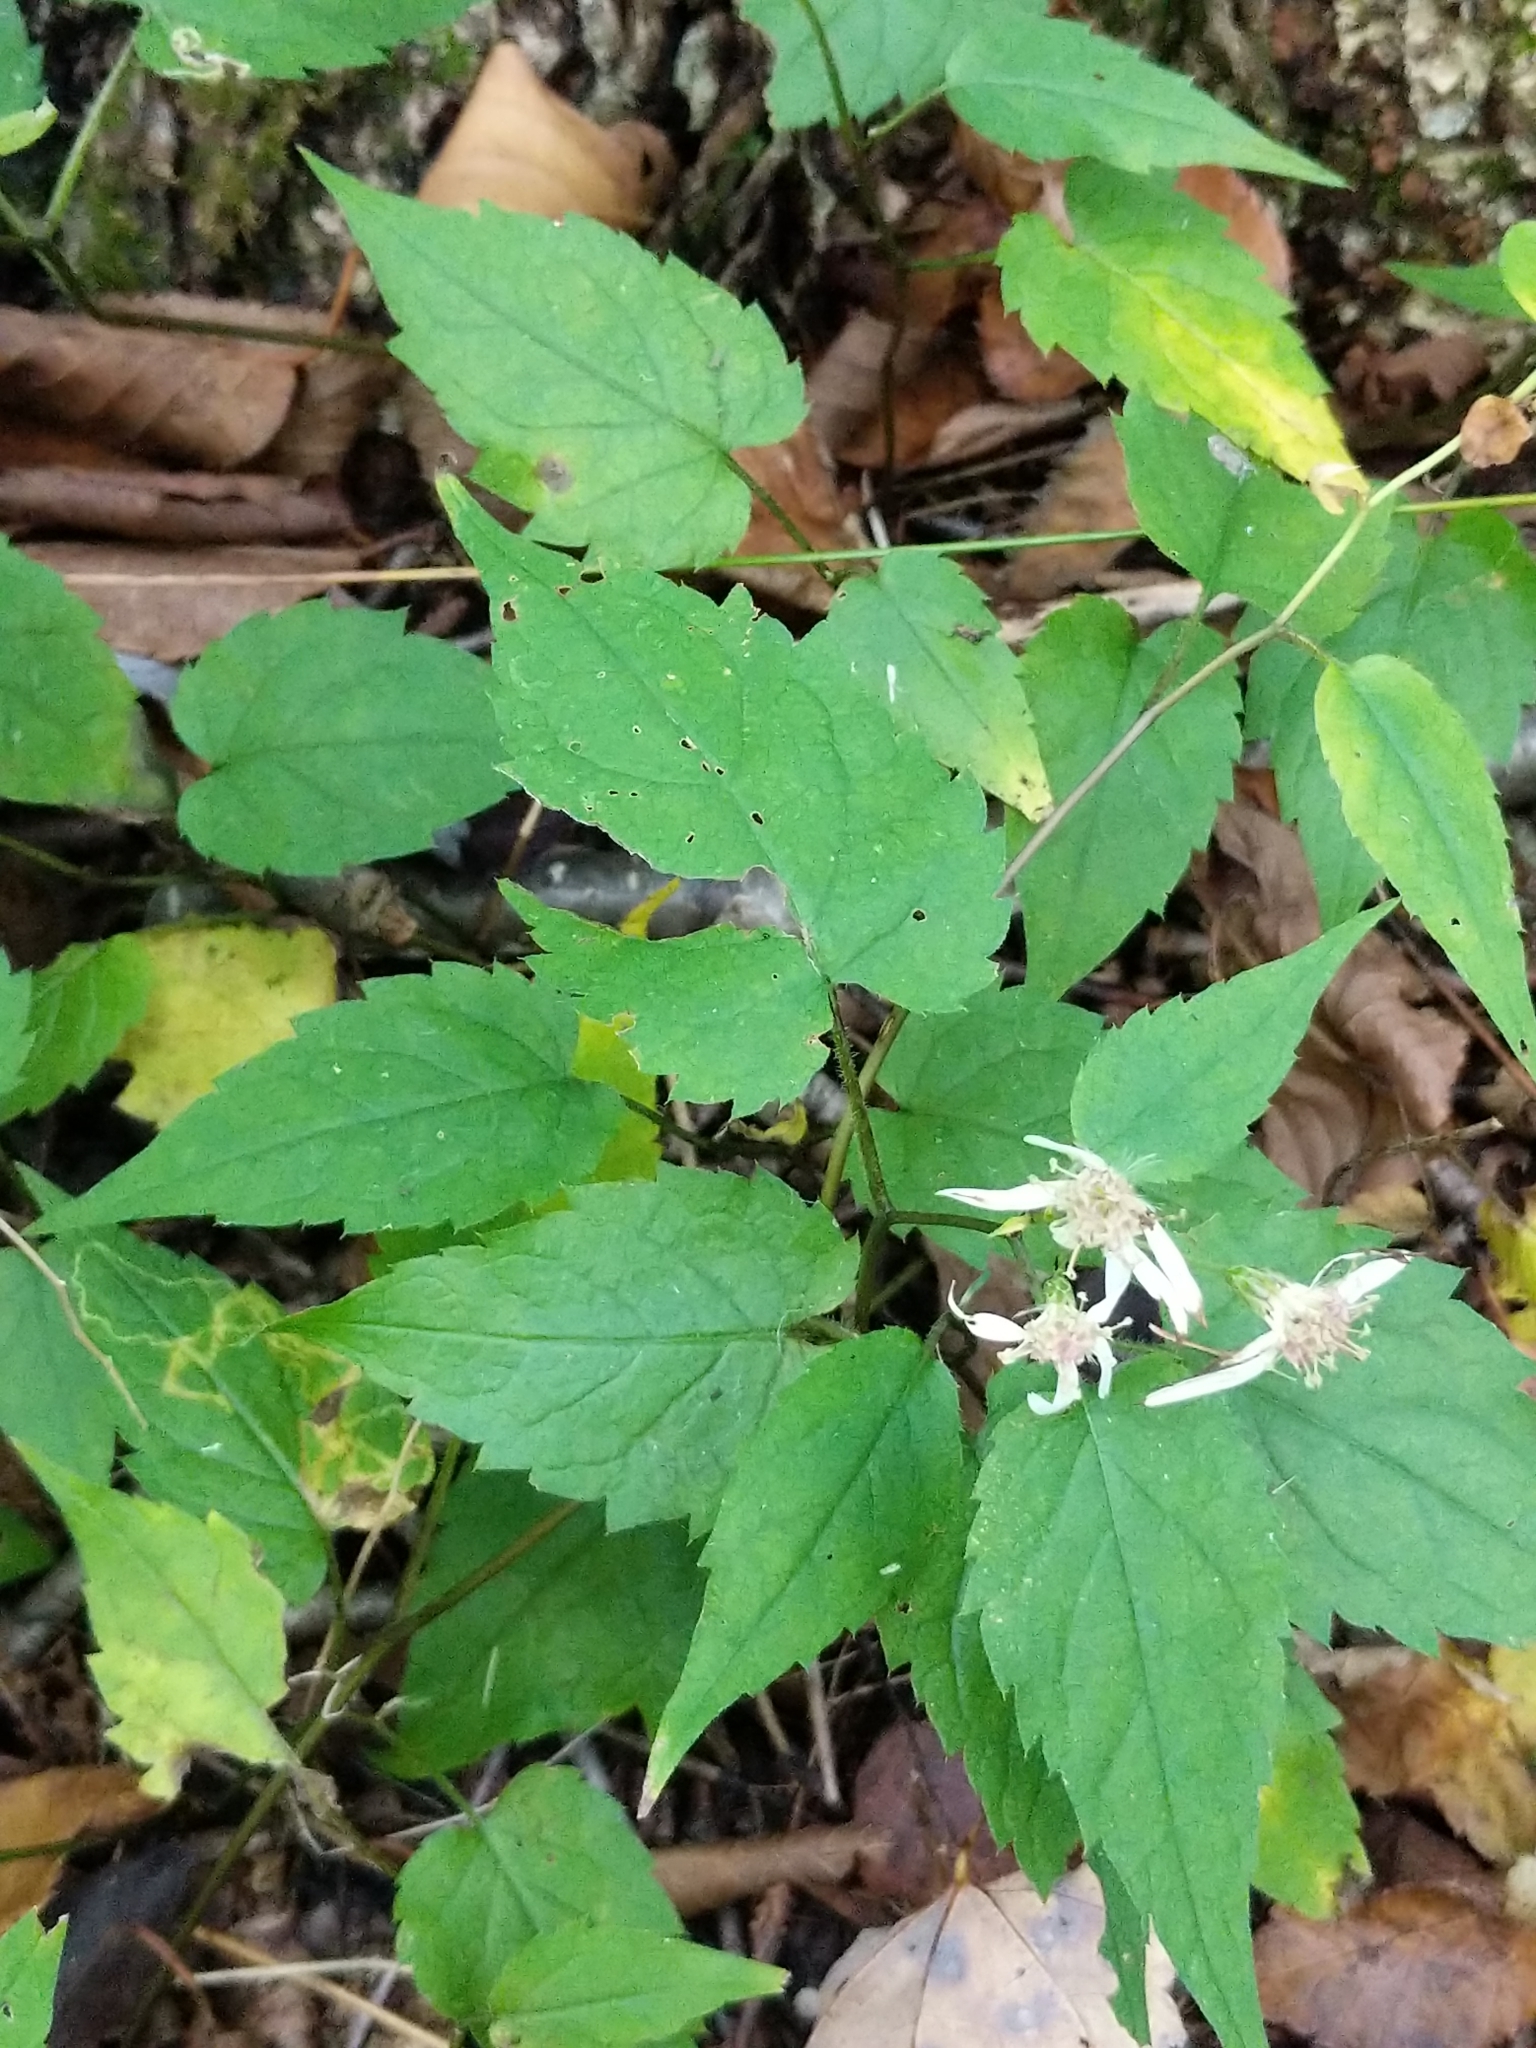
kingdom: Plantae
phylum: Tracheophyta
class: Magnoliopsida
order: Asterales
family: Asteraceae
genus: Eurybia
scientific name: Eurybia divaricata
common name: White wood aster
